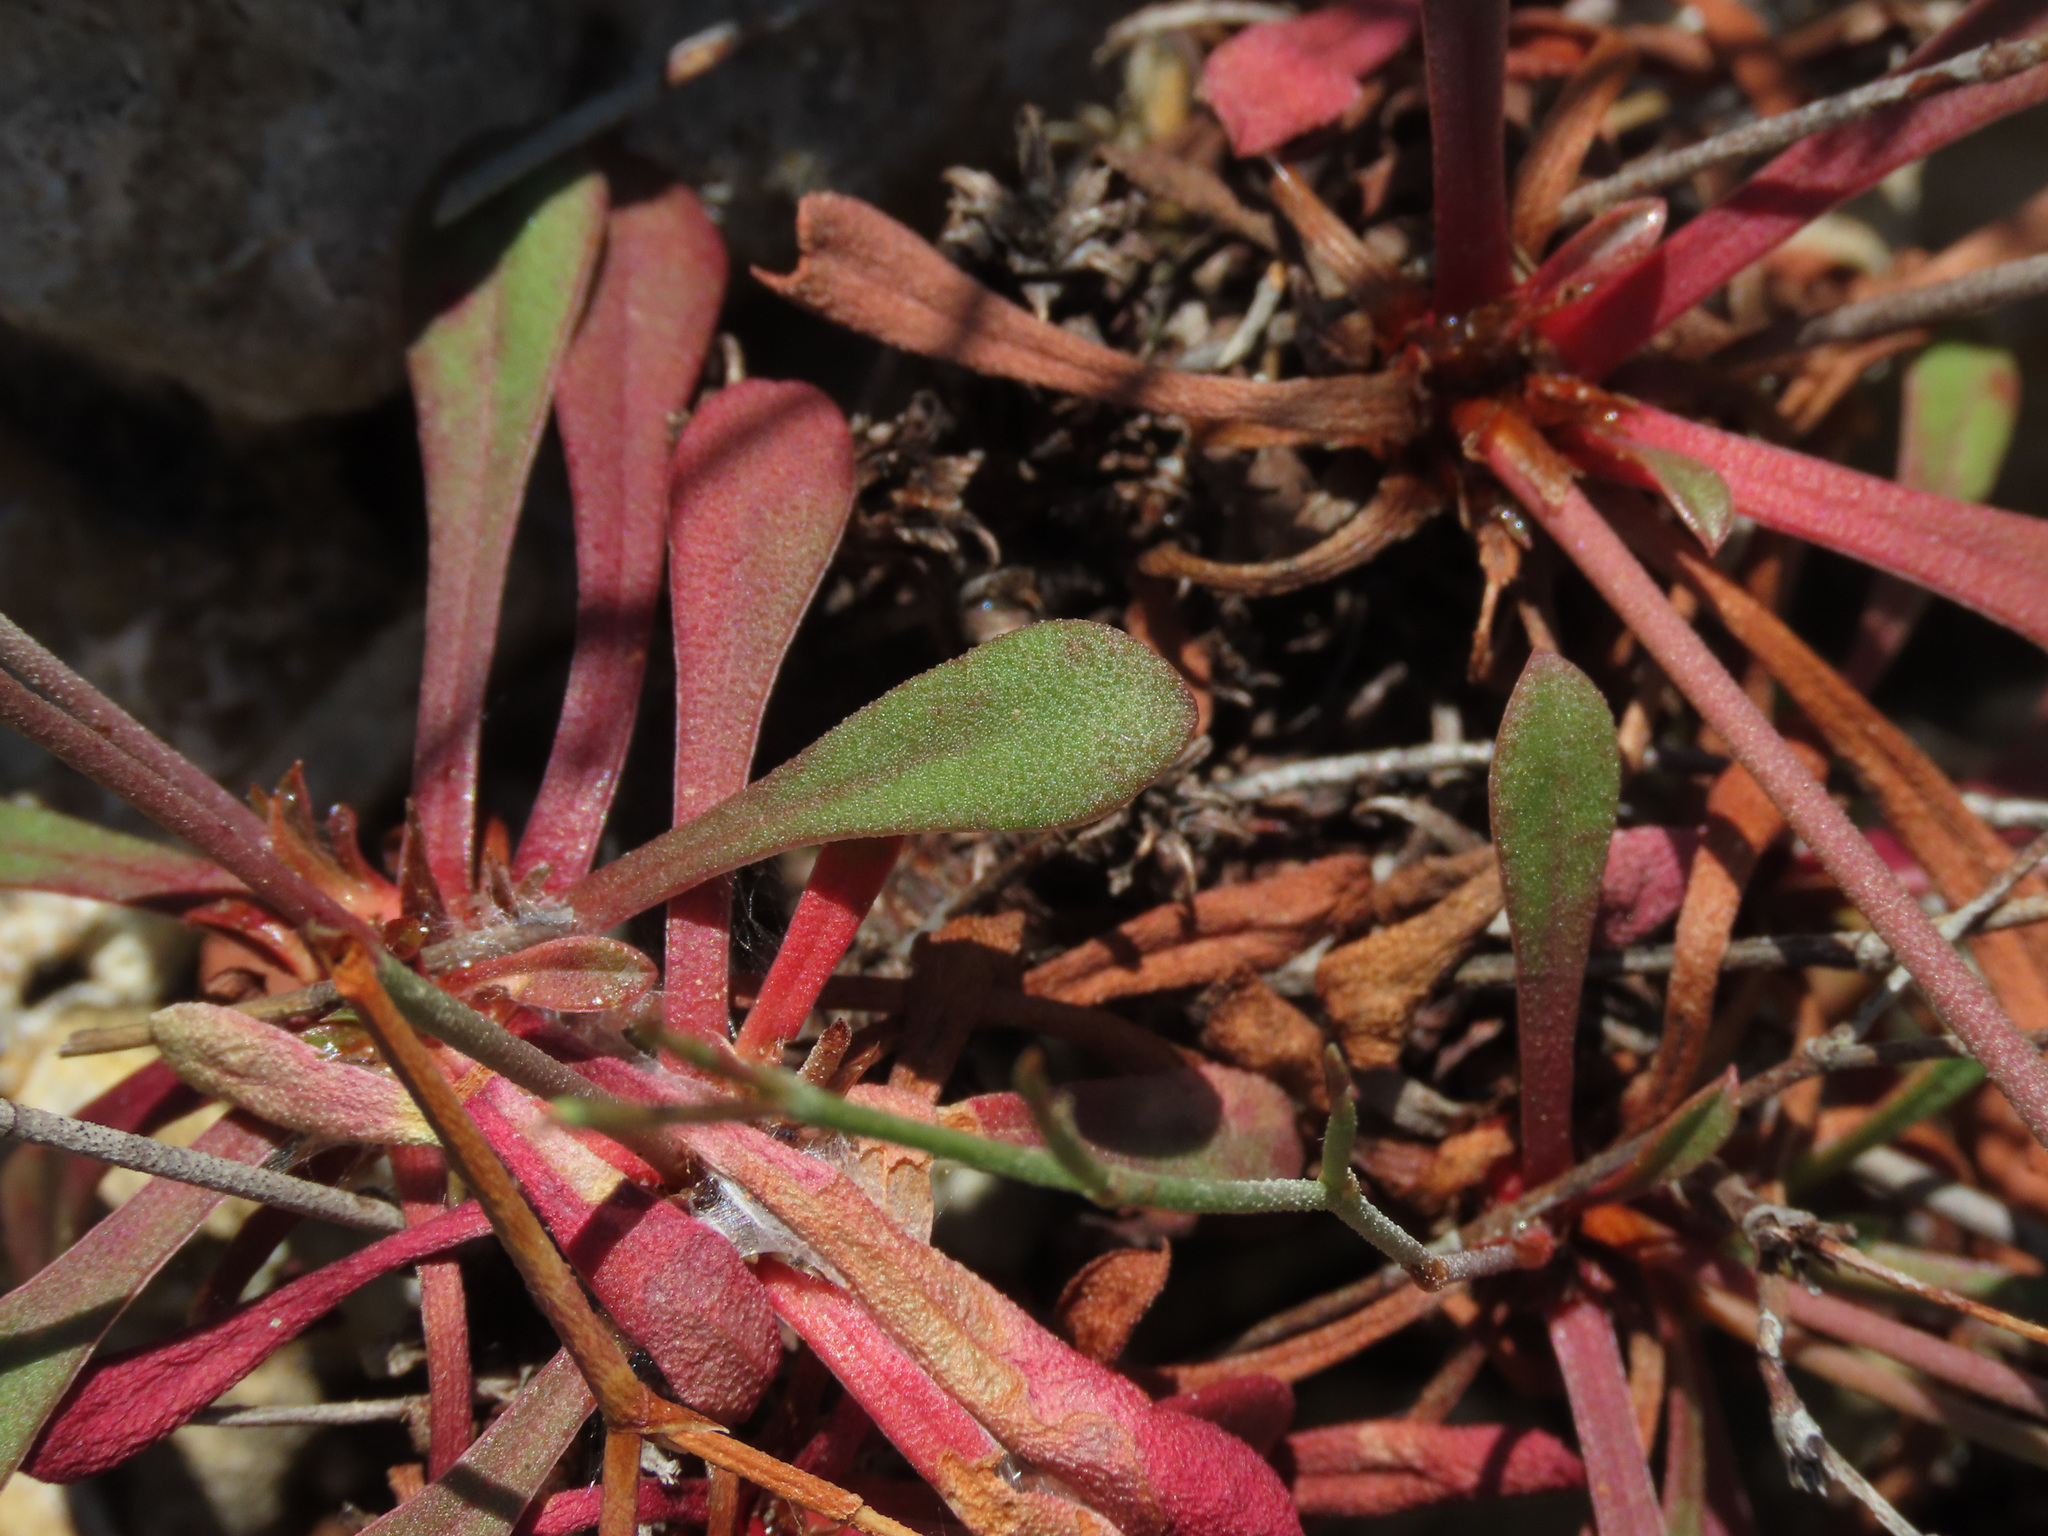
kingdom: Plantae
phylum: Tracheophyta
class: Magnoliopsida
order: Caryophyllales
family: Plumbaginaceae
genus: Limonium
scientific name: Limonium virgatum
